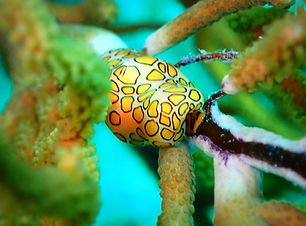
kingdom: Animalia
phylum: Mollusca
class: Gastropoda
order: Littorinimorpha
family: Ovulidae
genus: Cyphoma
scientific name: Cyphoma gibbosum
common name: Flamingo tongue
